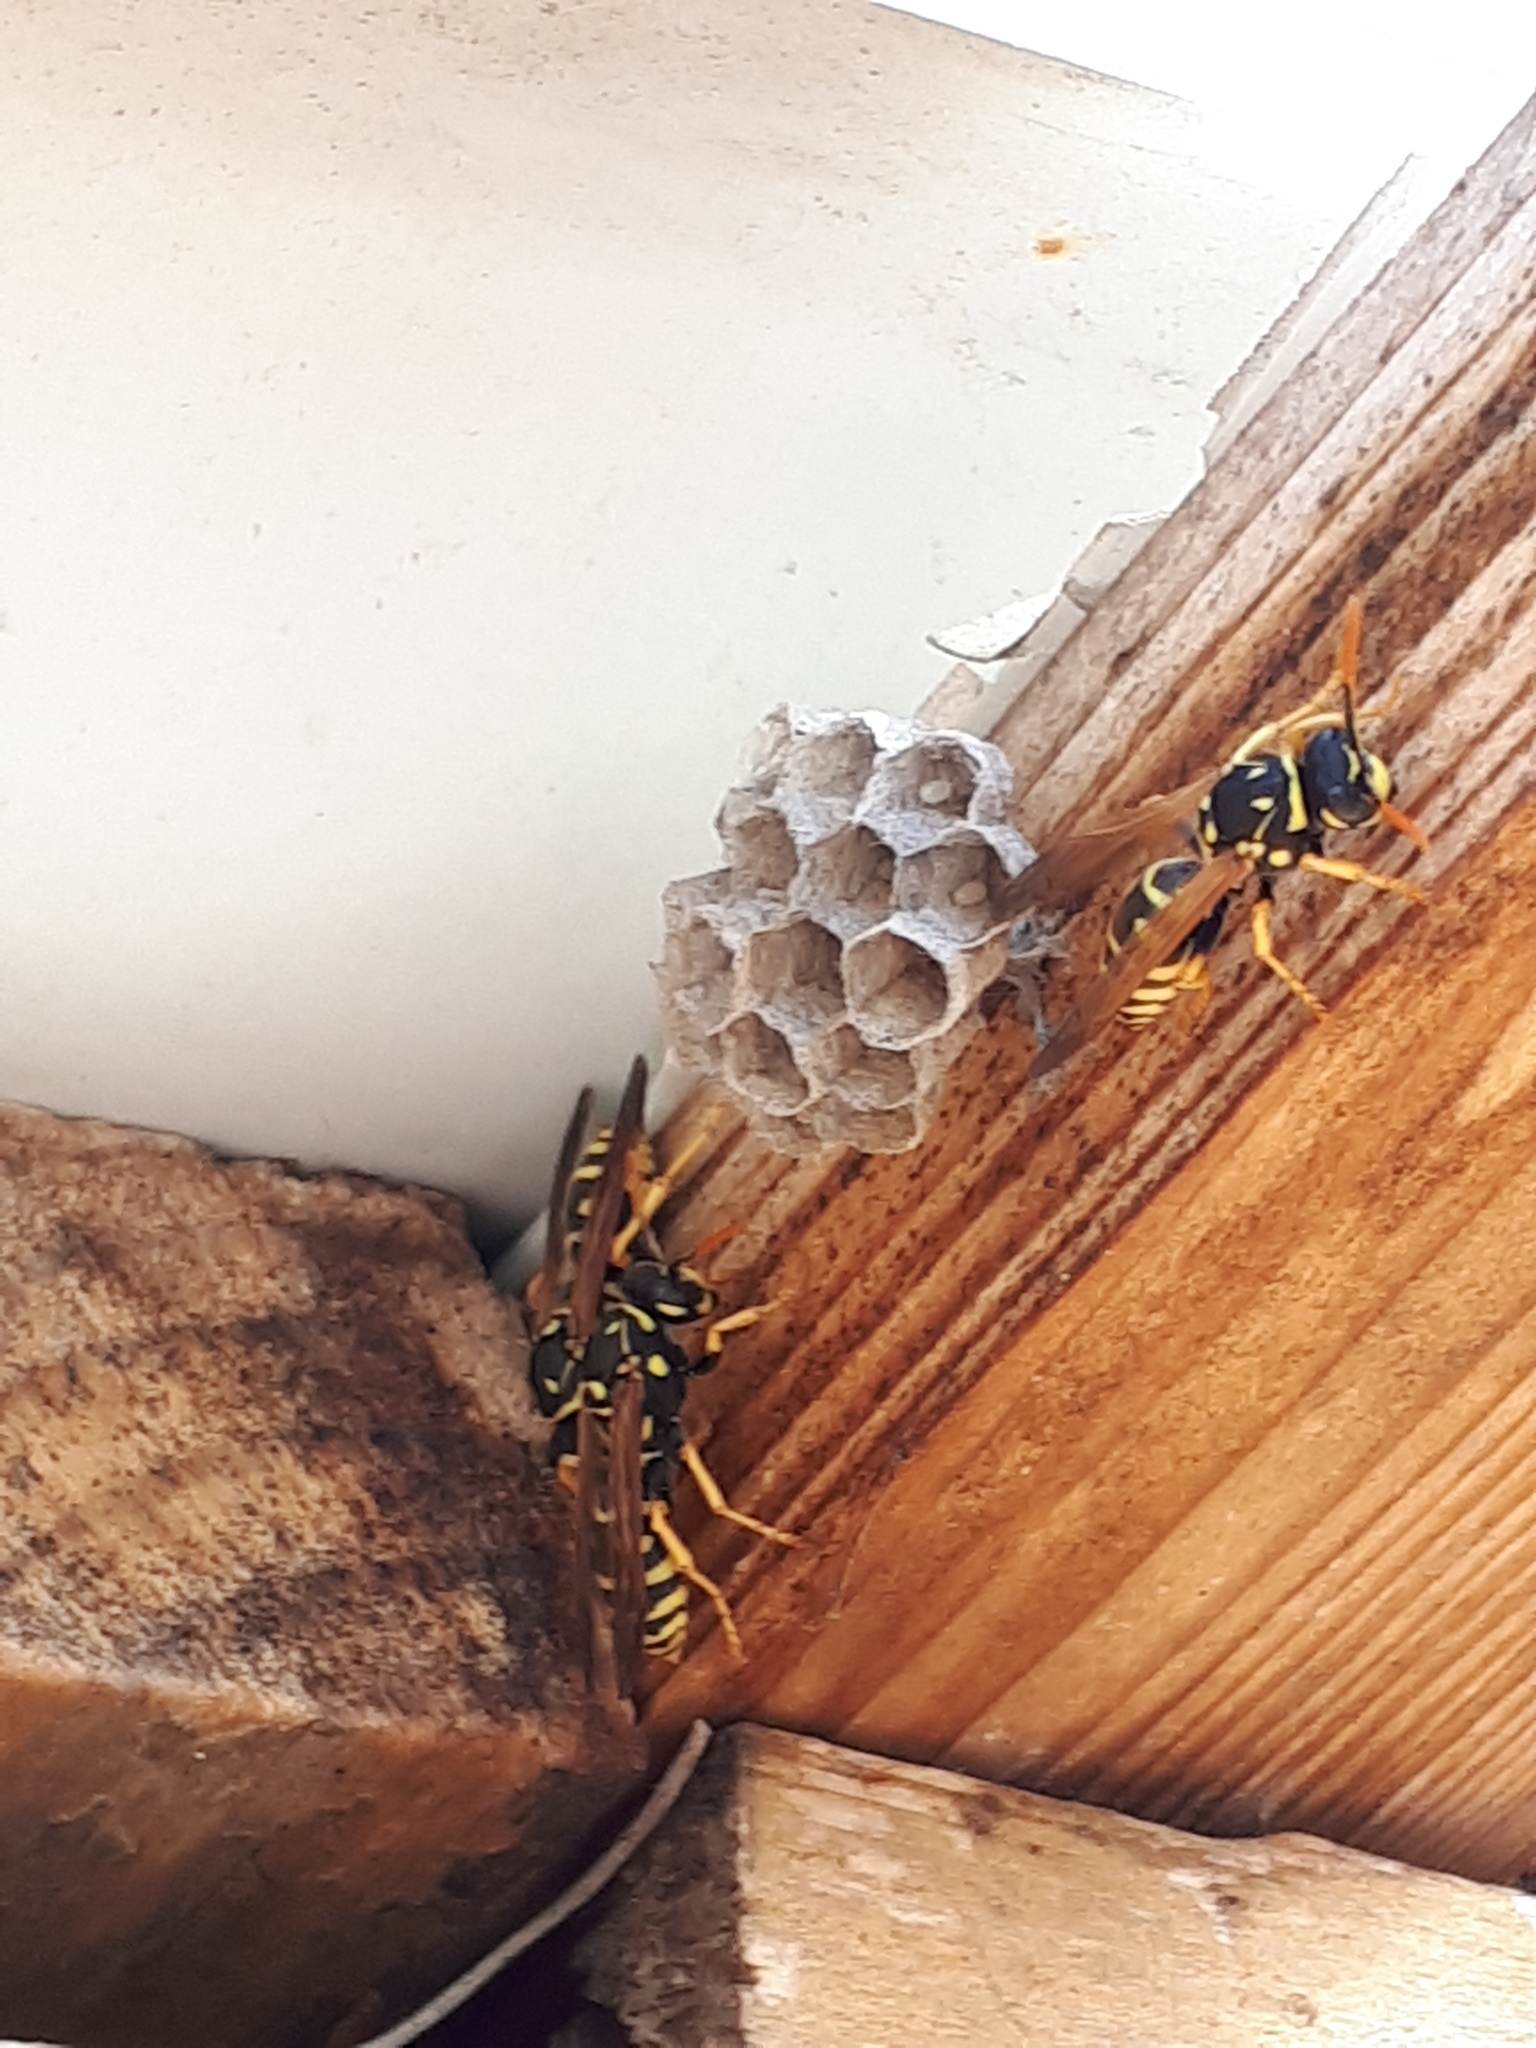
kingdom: Animalia
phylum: Arthropoda
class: Insecta
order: Hymenoptera
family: Eumenidae
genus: Polistes
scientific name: Polistes dominula
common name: Paper wasp
